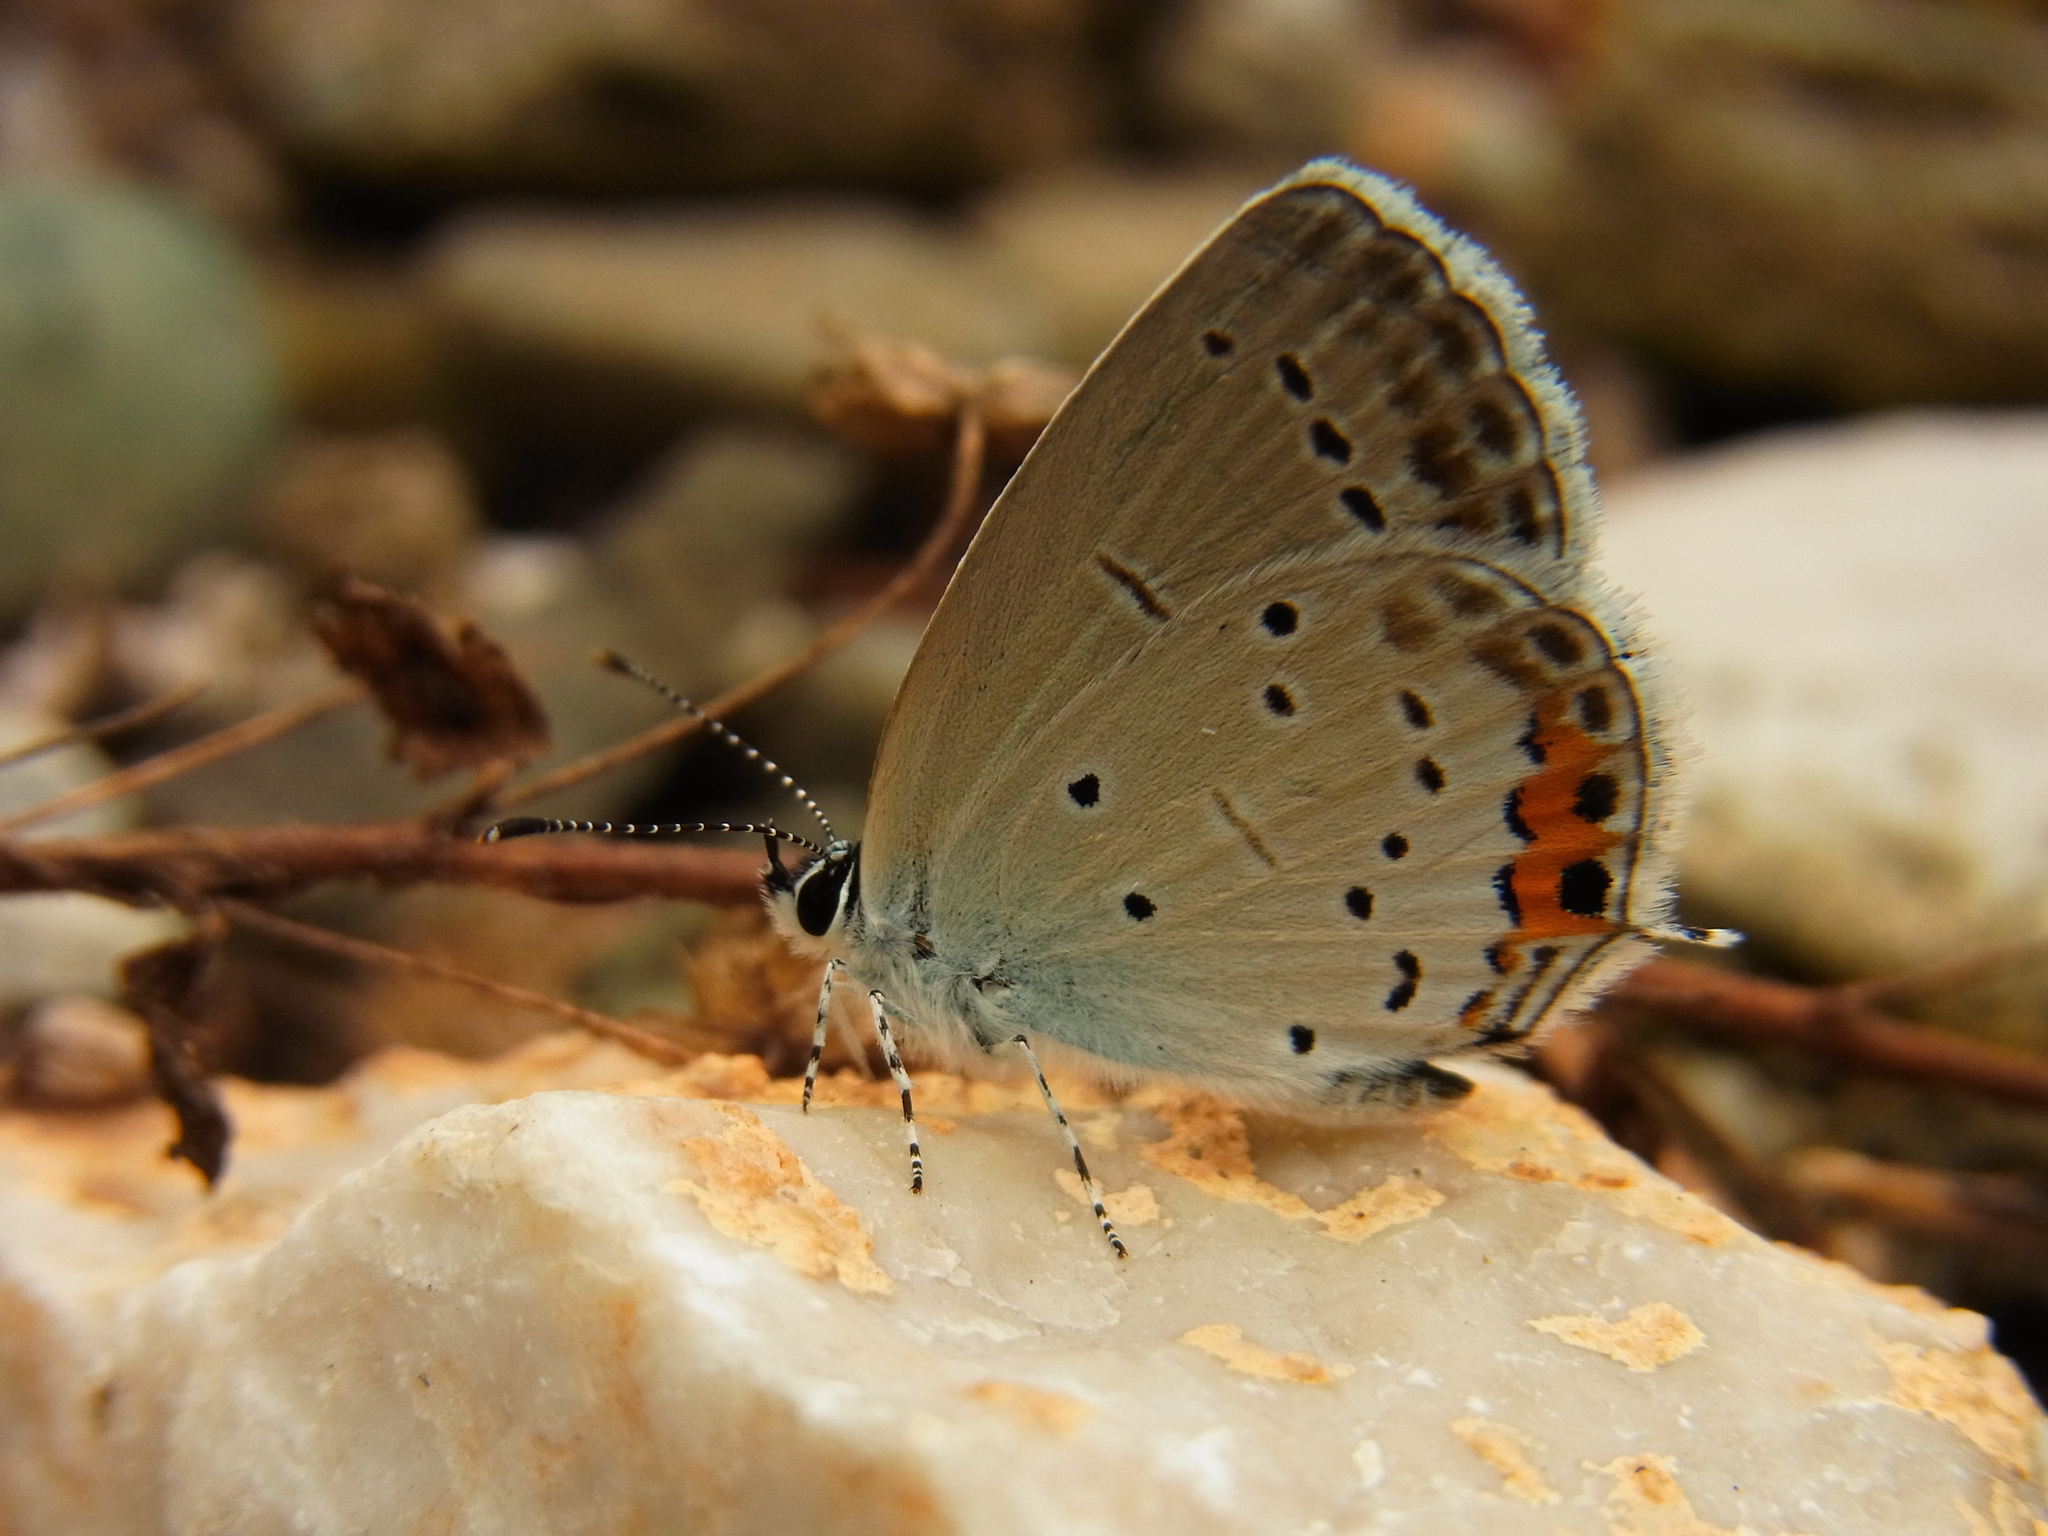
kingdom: Animalia
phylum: Arthropoda
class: Insecta
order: Lepidoptera
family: Lycaenidae
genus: Elkalyce
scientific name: Elkalyce argiades
